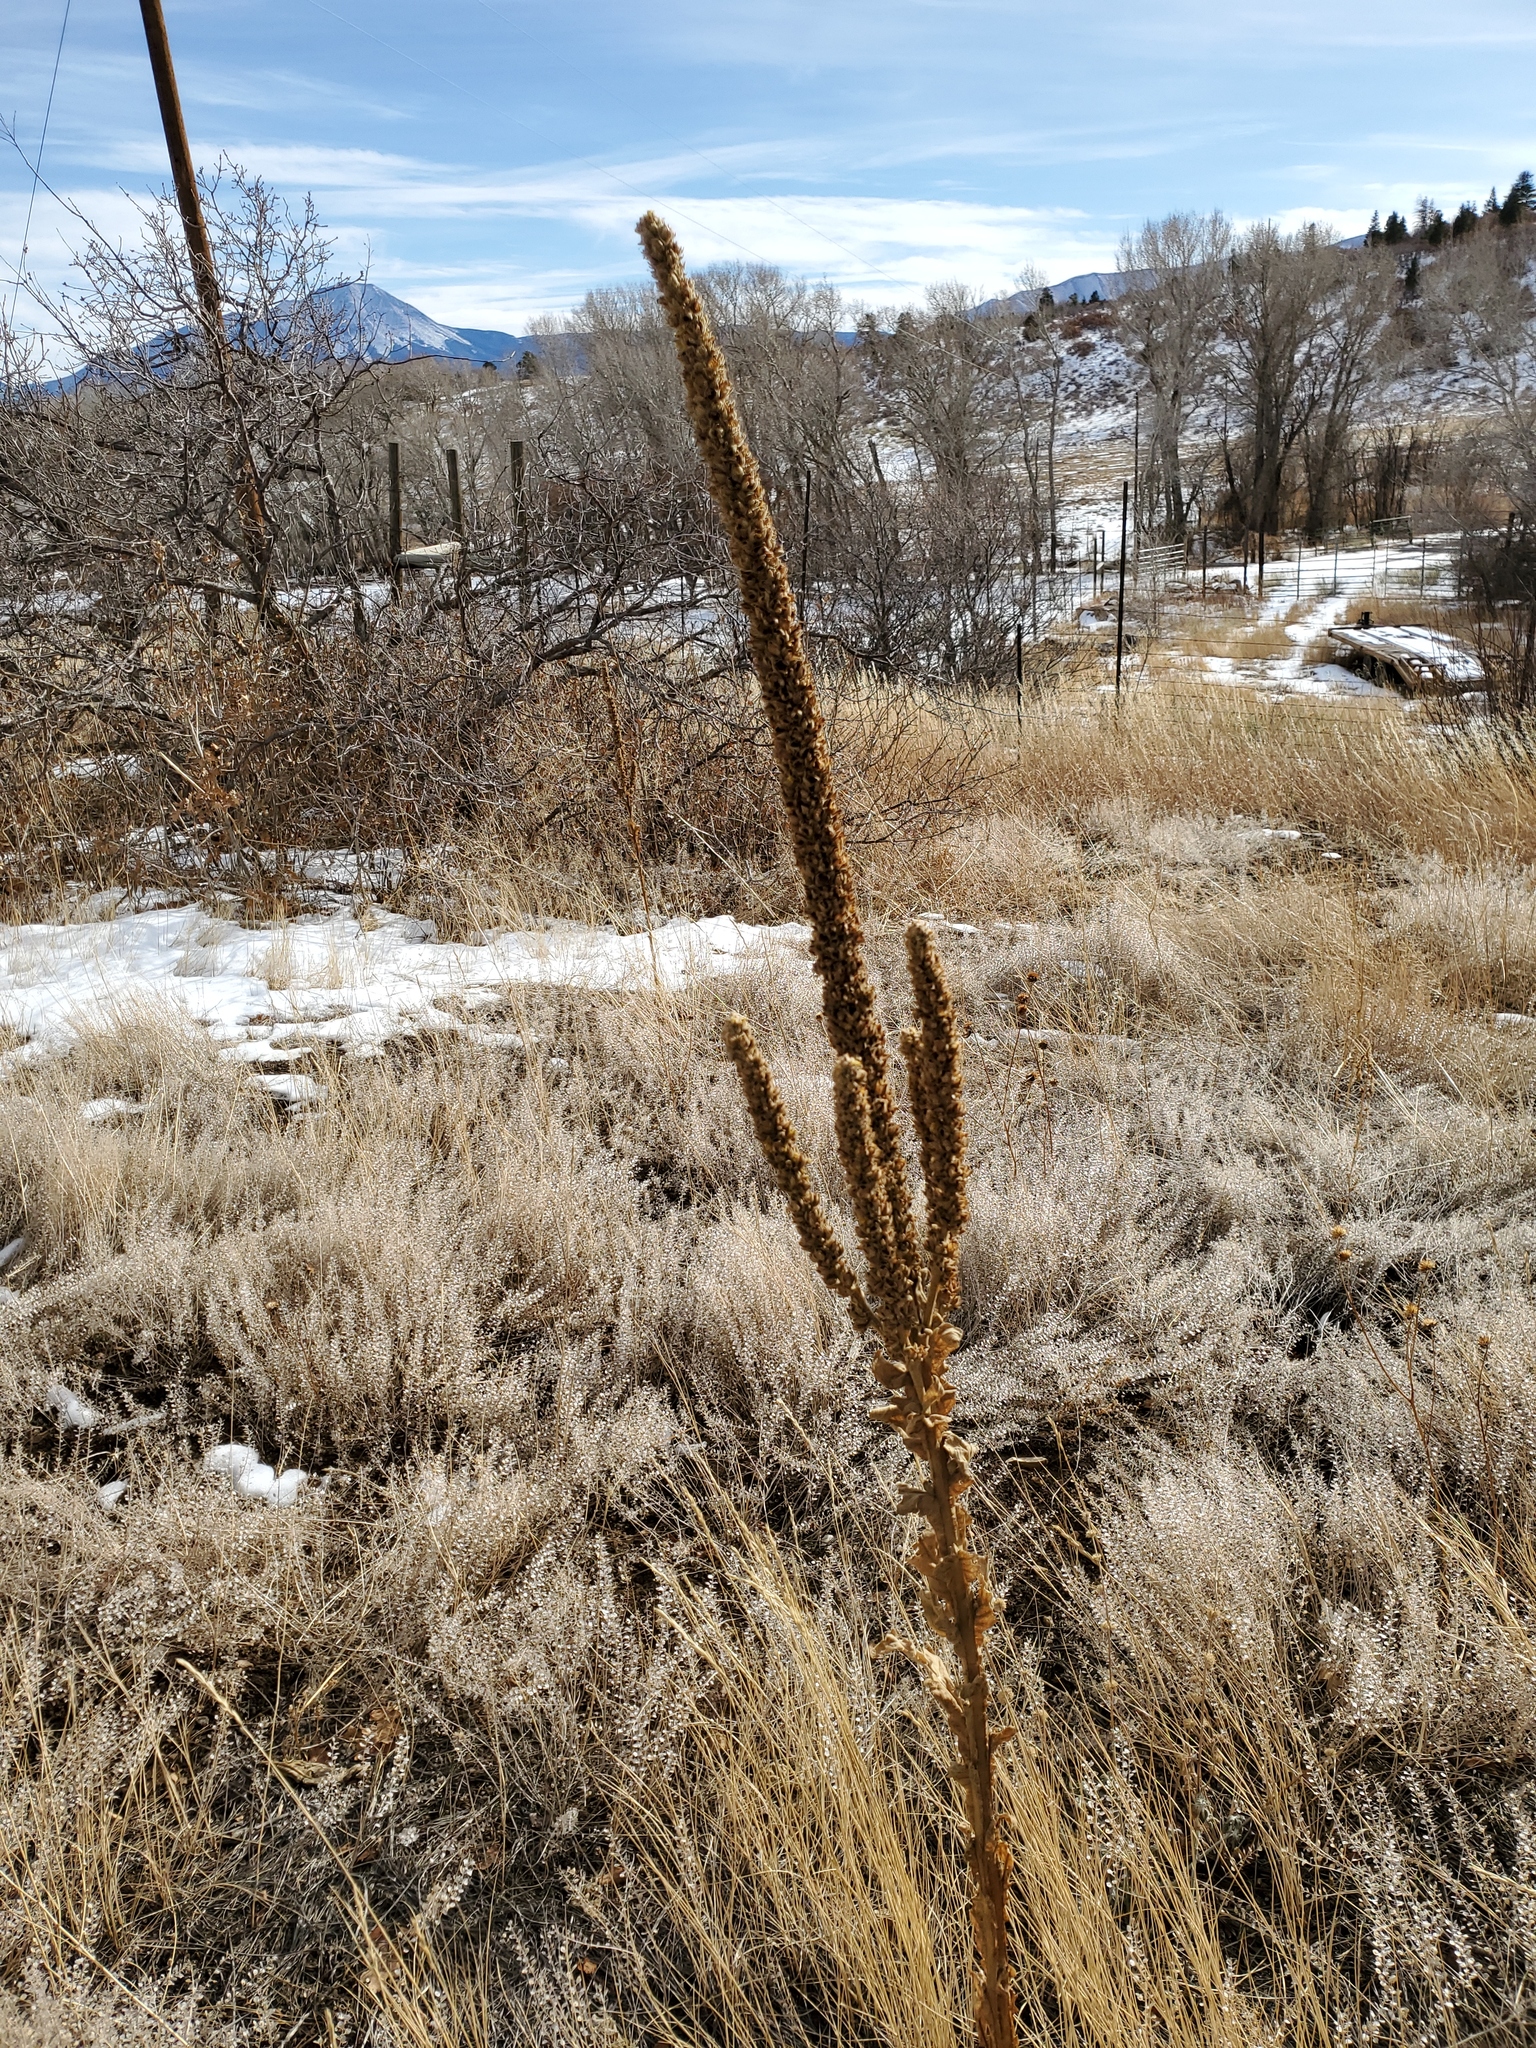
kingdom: Plantae
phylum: Tracheophyta
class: Magnoliopsida
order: Lamiales
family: Scrophulariaceae
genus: Verbascum
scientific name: Verbascum thapsus
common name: Common mullein
